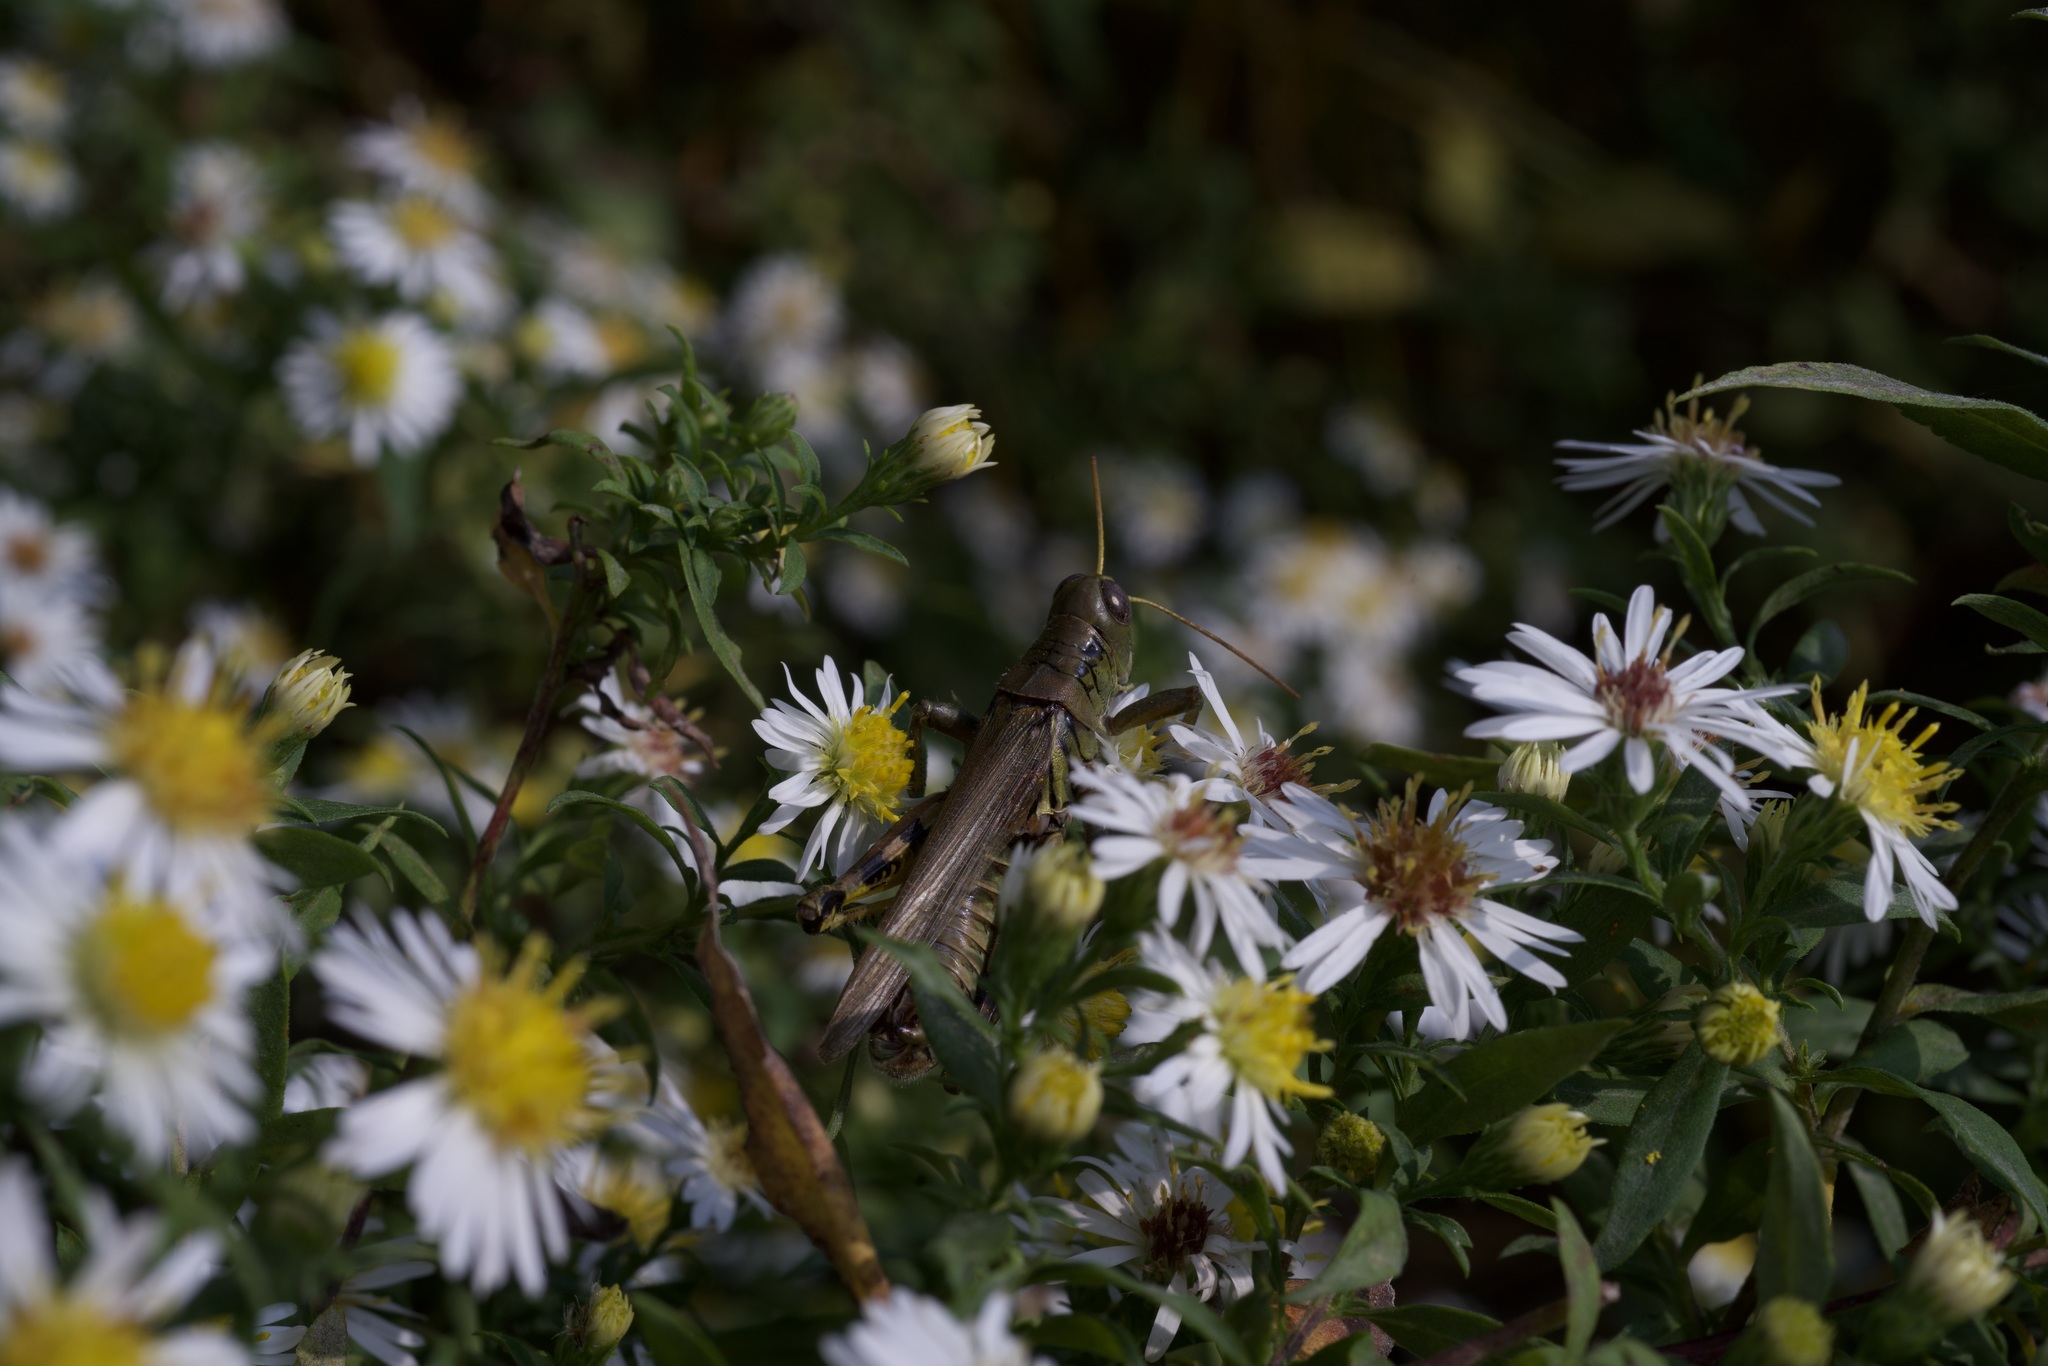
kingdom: Animalia
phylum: Arthropoda
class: Insecta
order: Orthoptera
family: Acrididae
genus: Melanoplus
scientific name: Melanoplus differentialis
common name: Differential grasshopper
